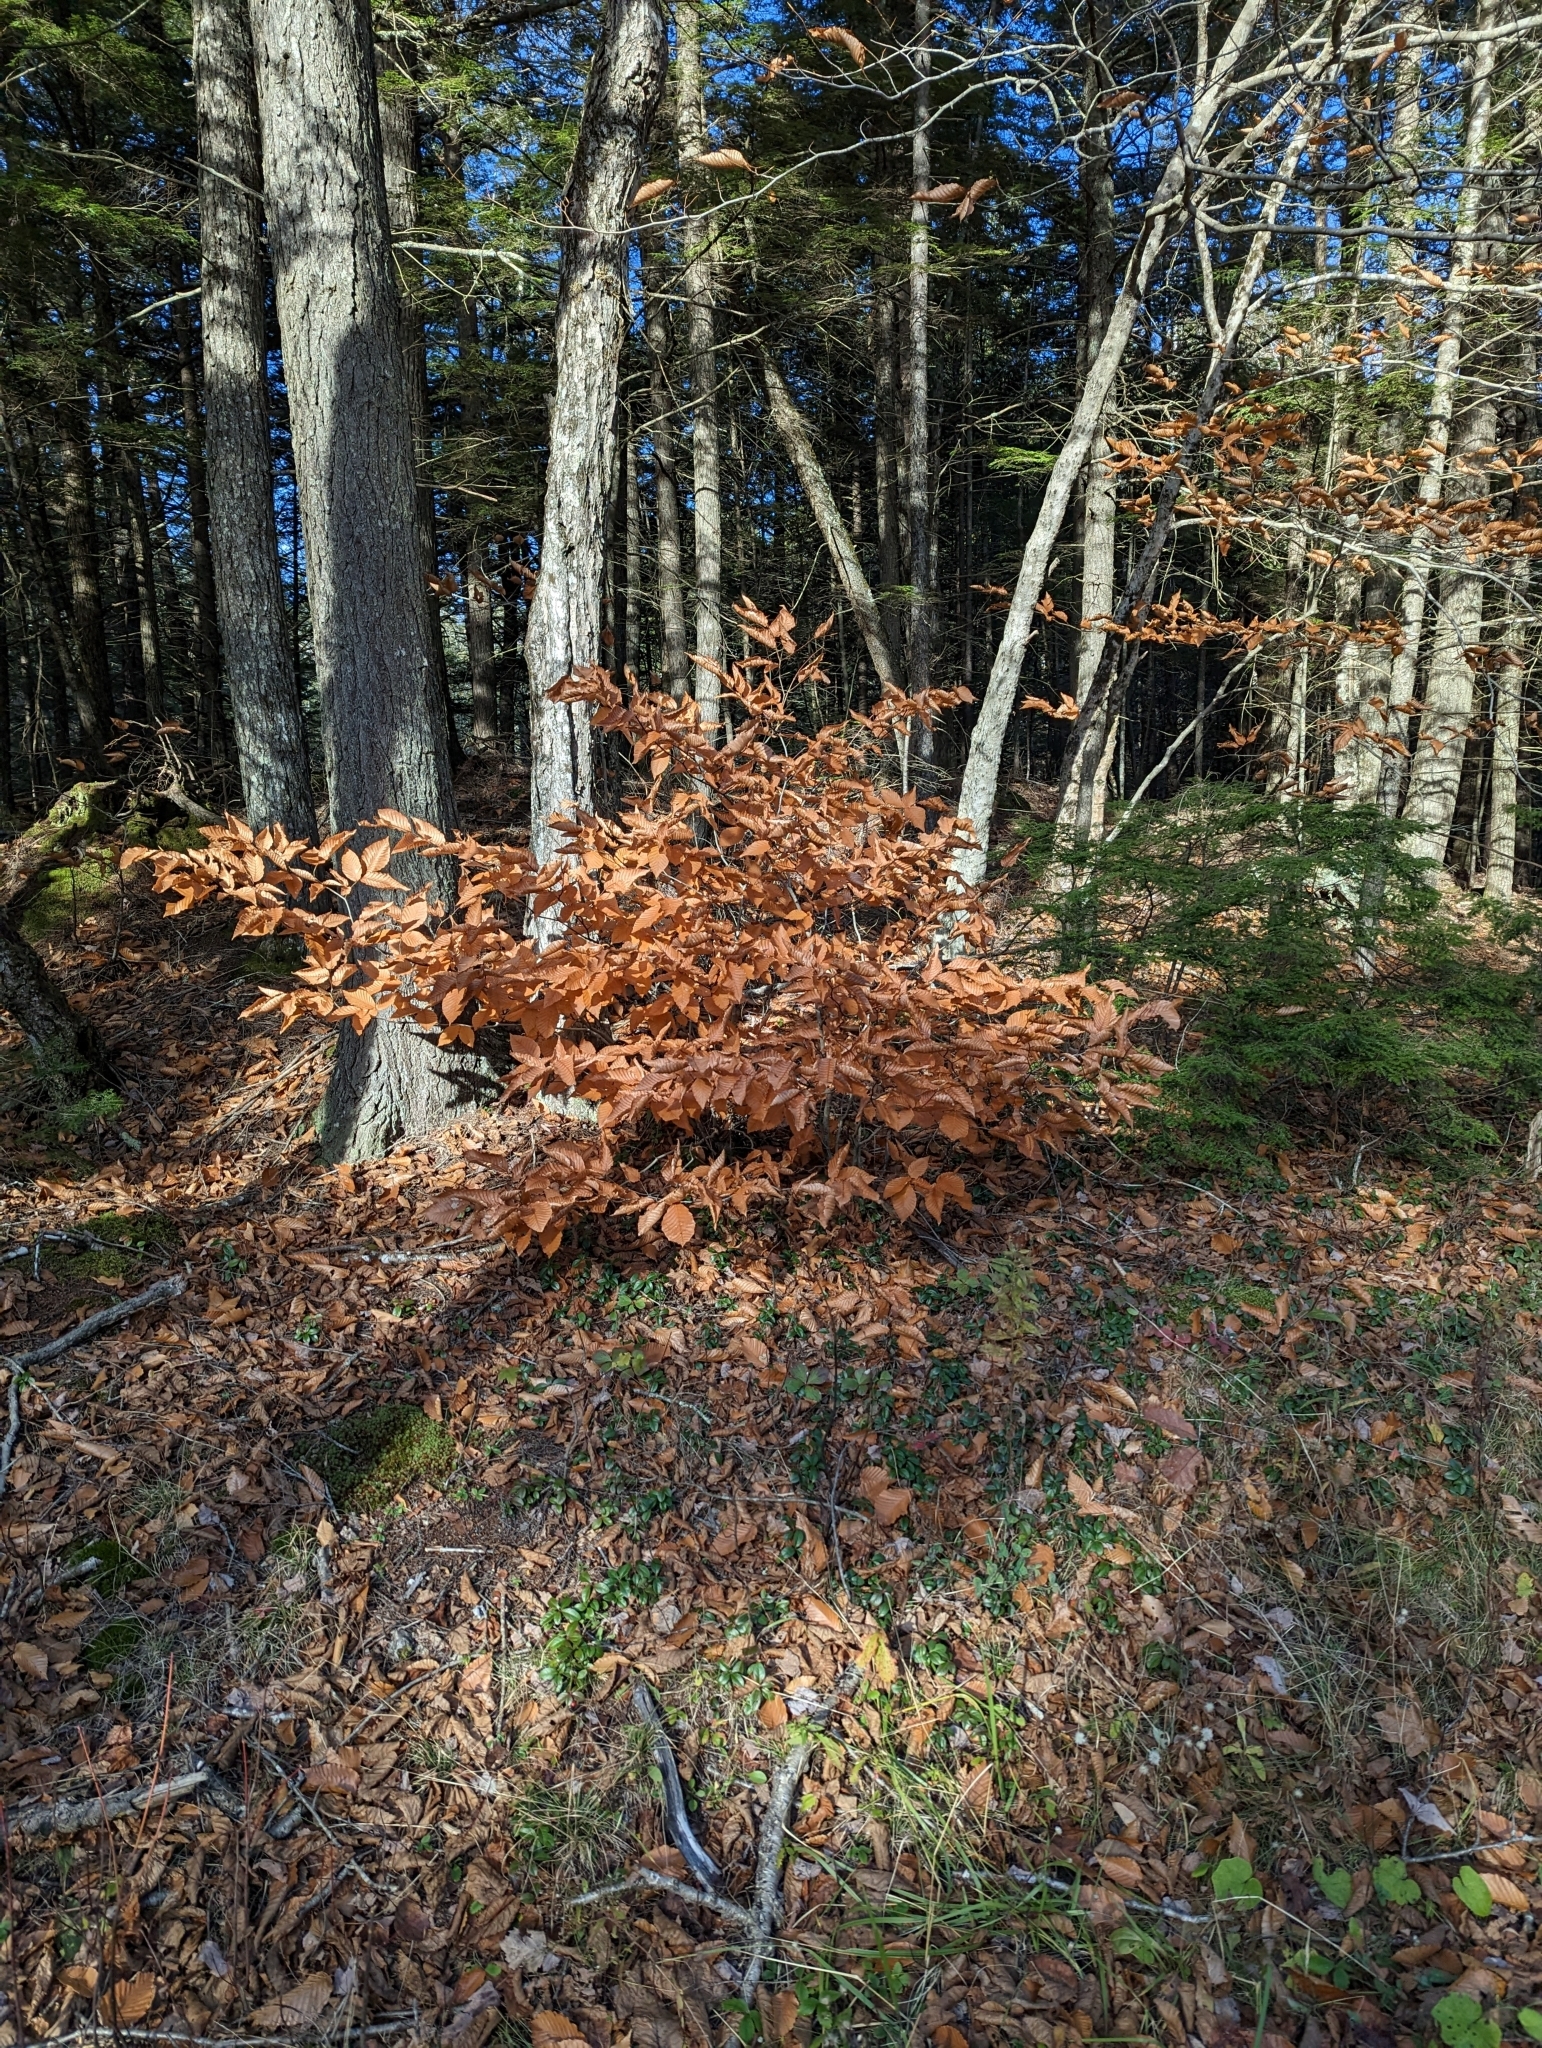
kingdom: Plantae
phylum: Tracheophyta
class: Magnoliopsida
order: Fagales
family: Fagaceae
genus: Fagus
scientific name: Fagus grandifolia
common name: American beech
